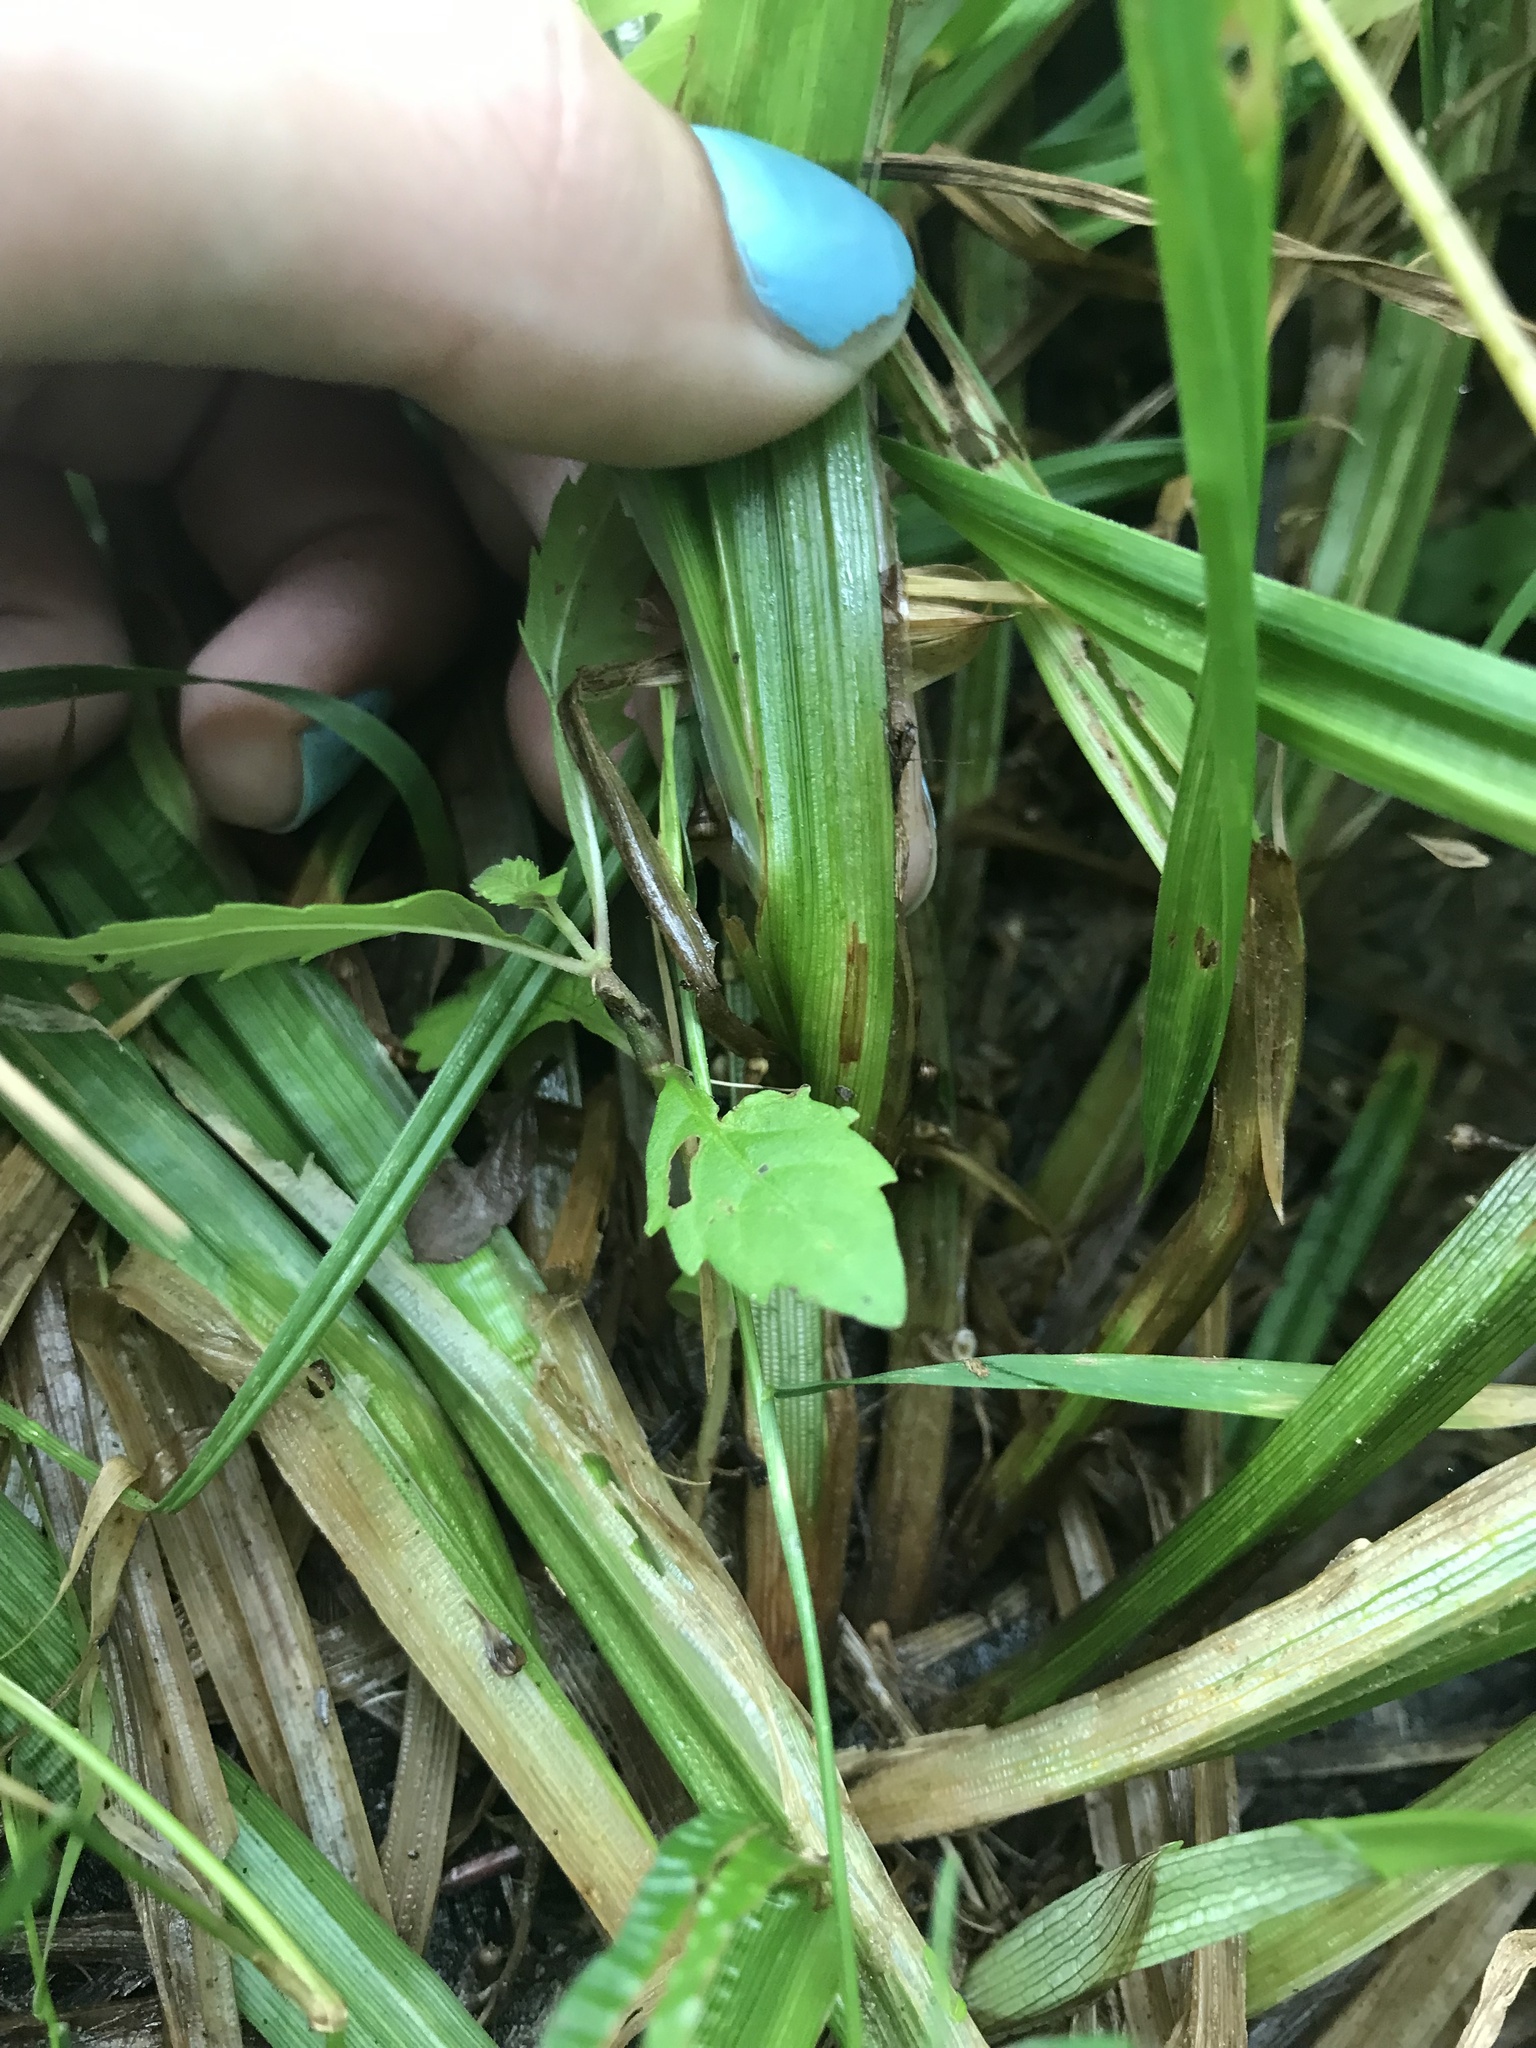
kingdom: Plantae
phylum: Tracheophyta
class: Liliopsida
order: Poales
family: Cyperaceae
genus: Carex
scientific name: Carex stipata
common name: Awl-fruited sedge
